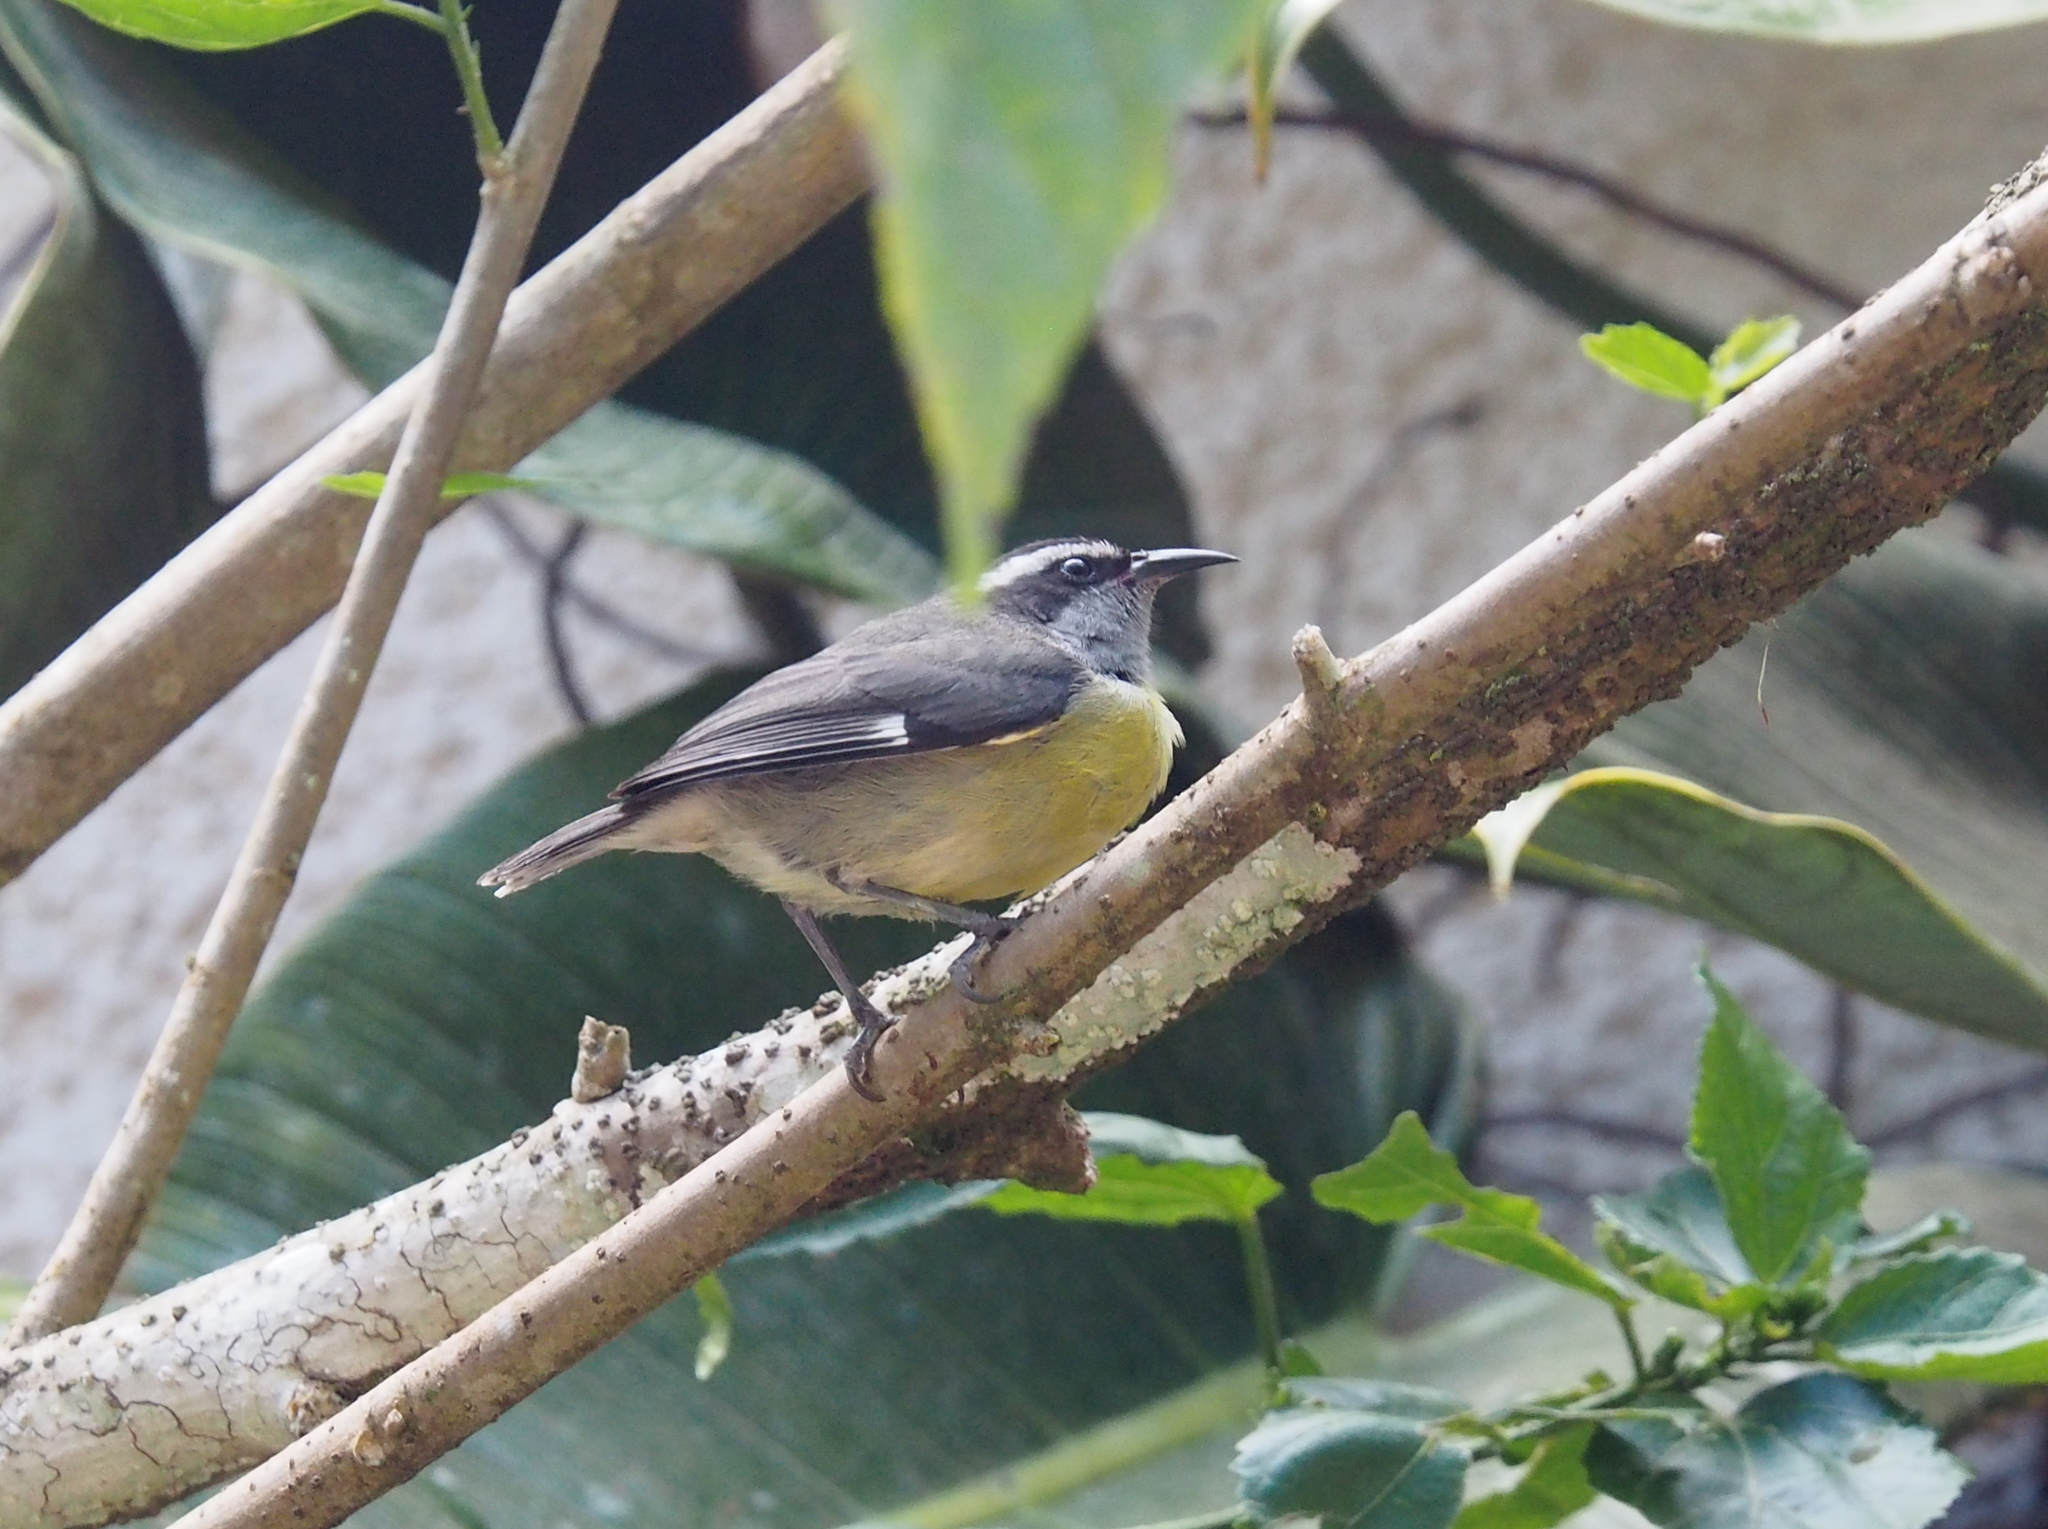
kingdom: Animalia
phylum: Chordata
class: Aves
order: Passeriformes
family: Thraupidae
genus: Coereba
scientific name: Coereba flaveola
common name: Bananaquit
